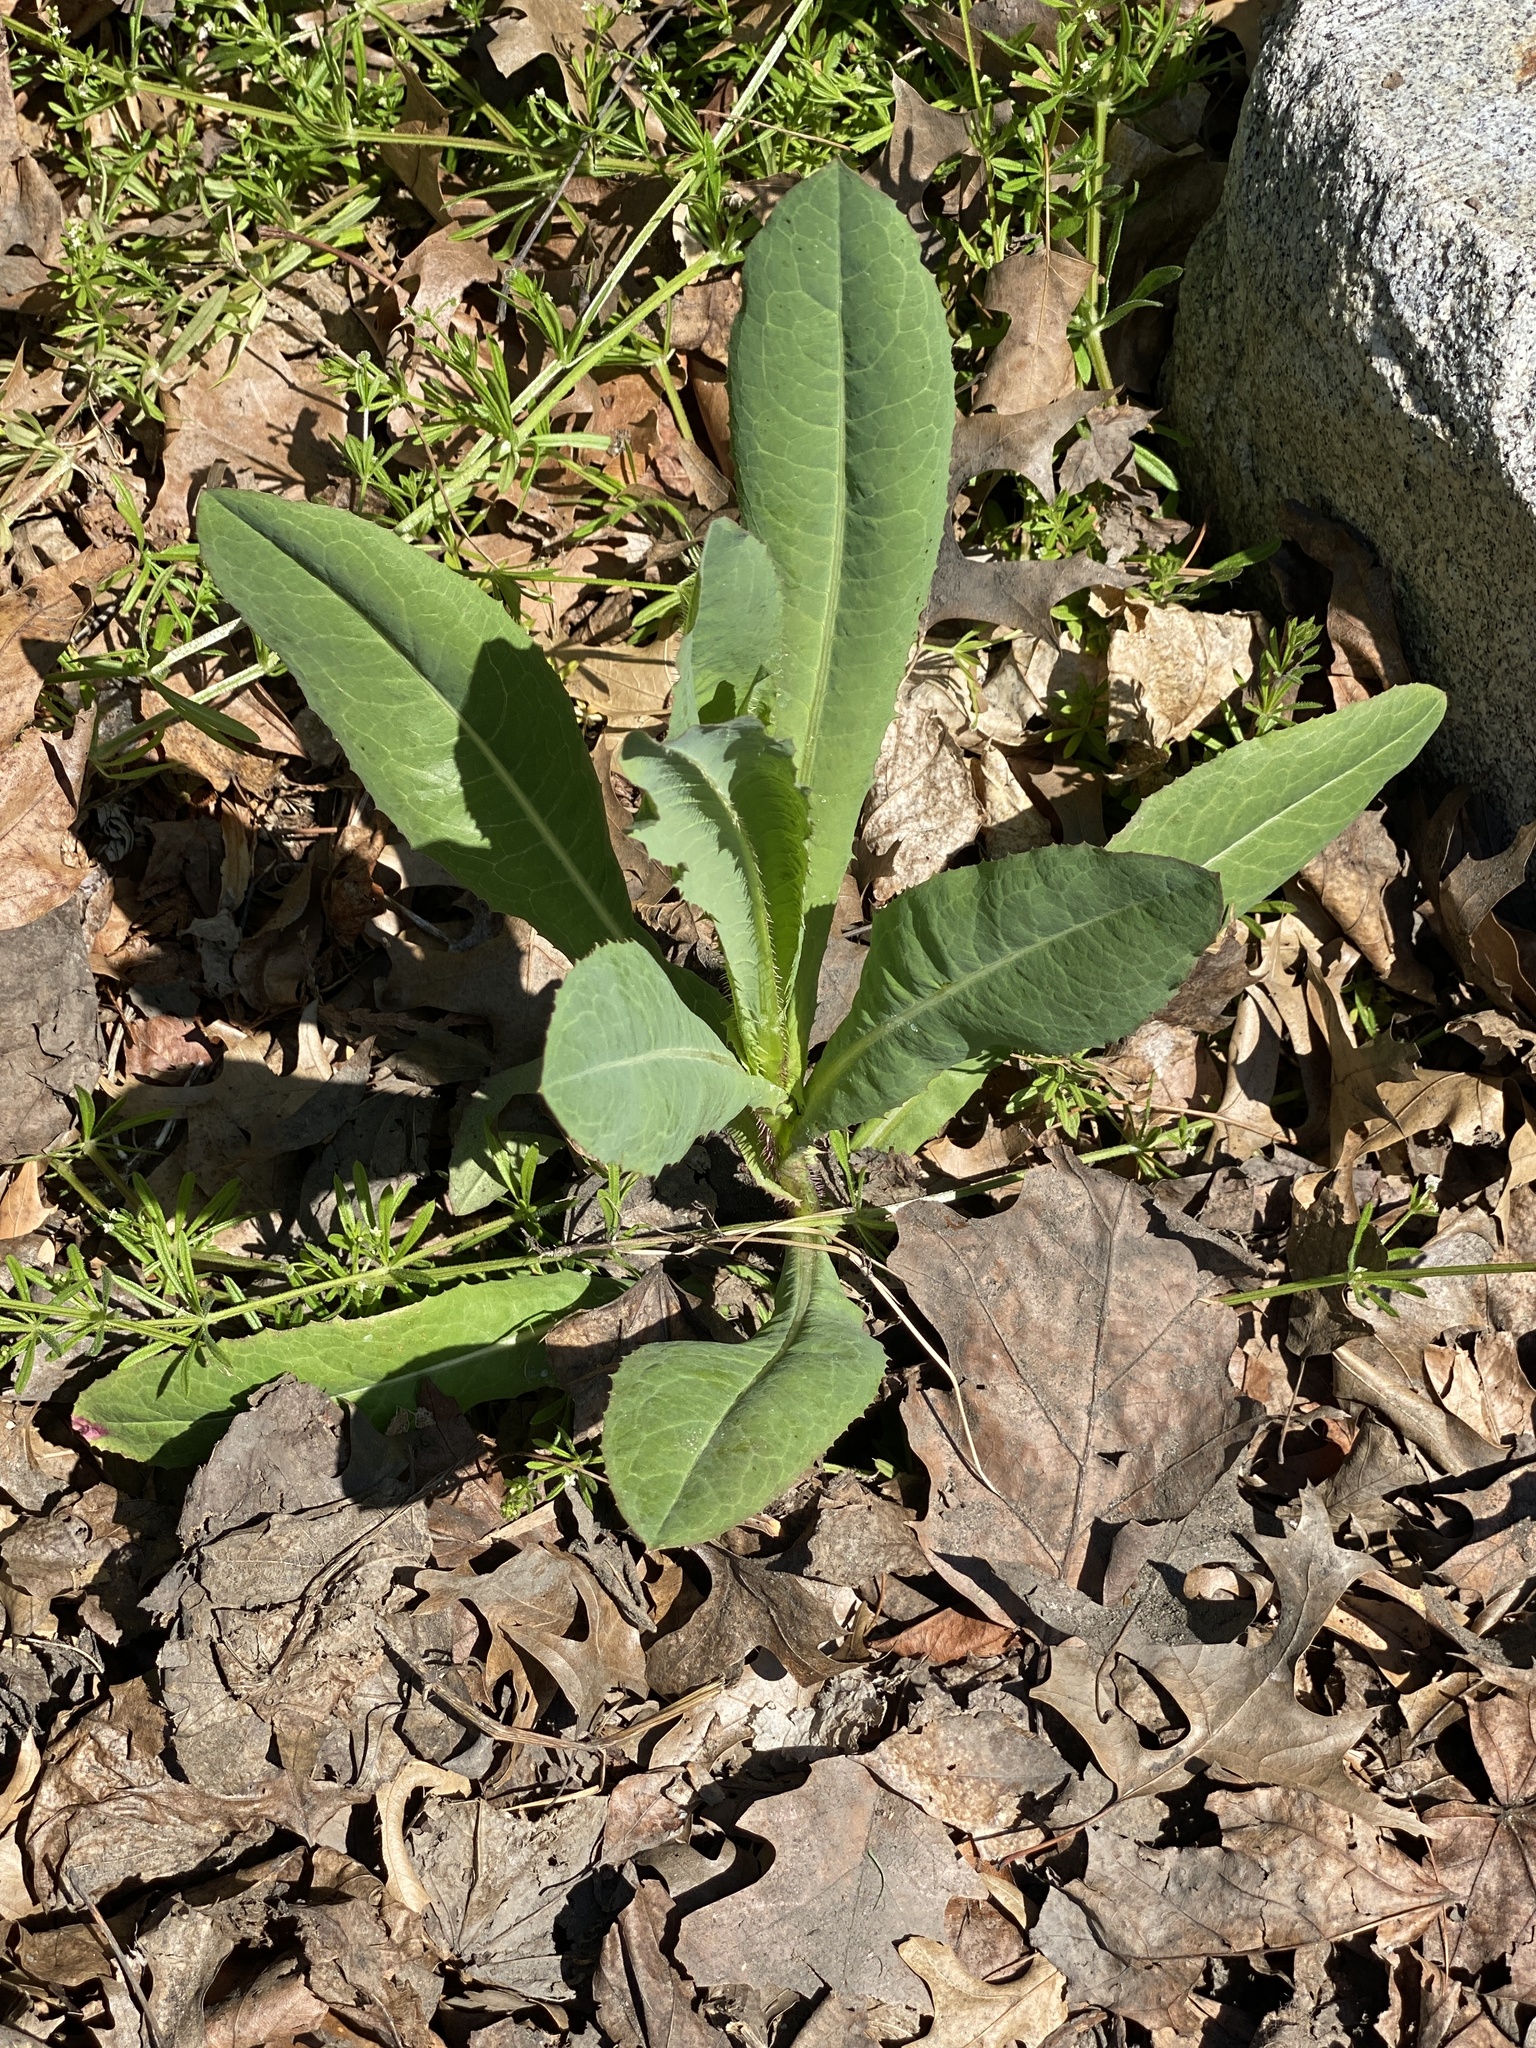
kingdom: Plantae
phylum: Tracheophyta
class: Magnoliopsida
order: Asterales
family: Asteraceae
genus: Lactuca
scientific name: Lactuca serriola
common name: Prickly lettuce
